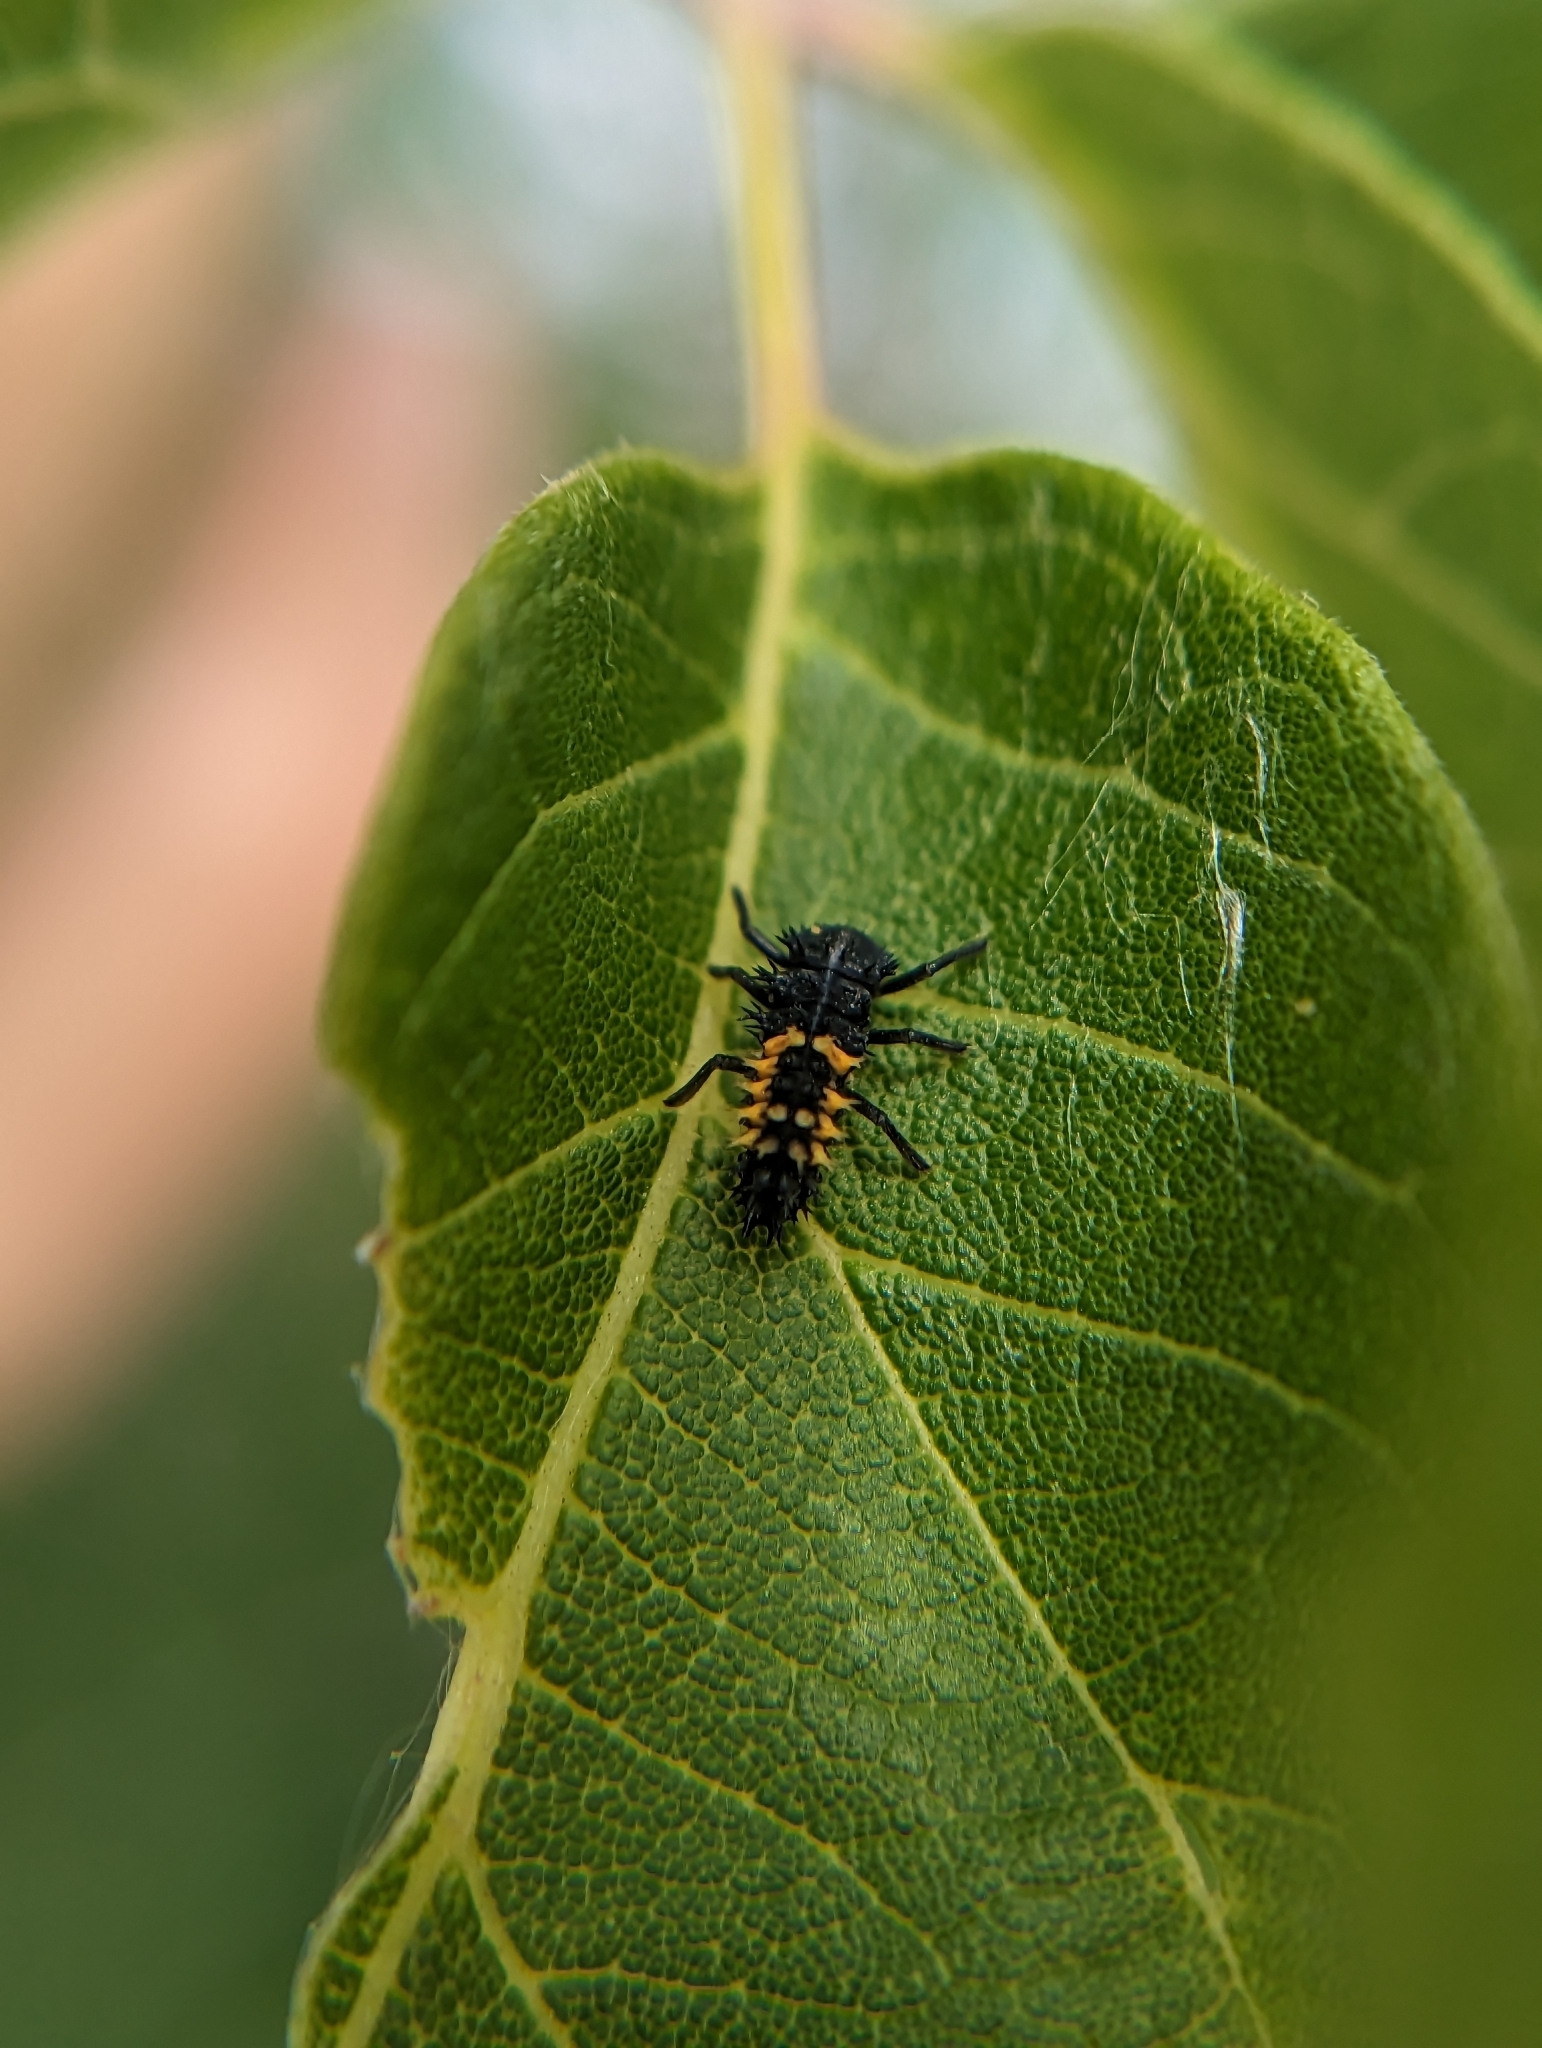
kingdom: Animalia
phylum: Arthropoda
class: Insecta
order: Coleoptera
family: Coccinellidae
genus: Harmonia
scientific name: Harmonia axyridis
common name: Harlequin ladybird
